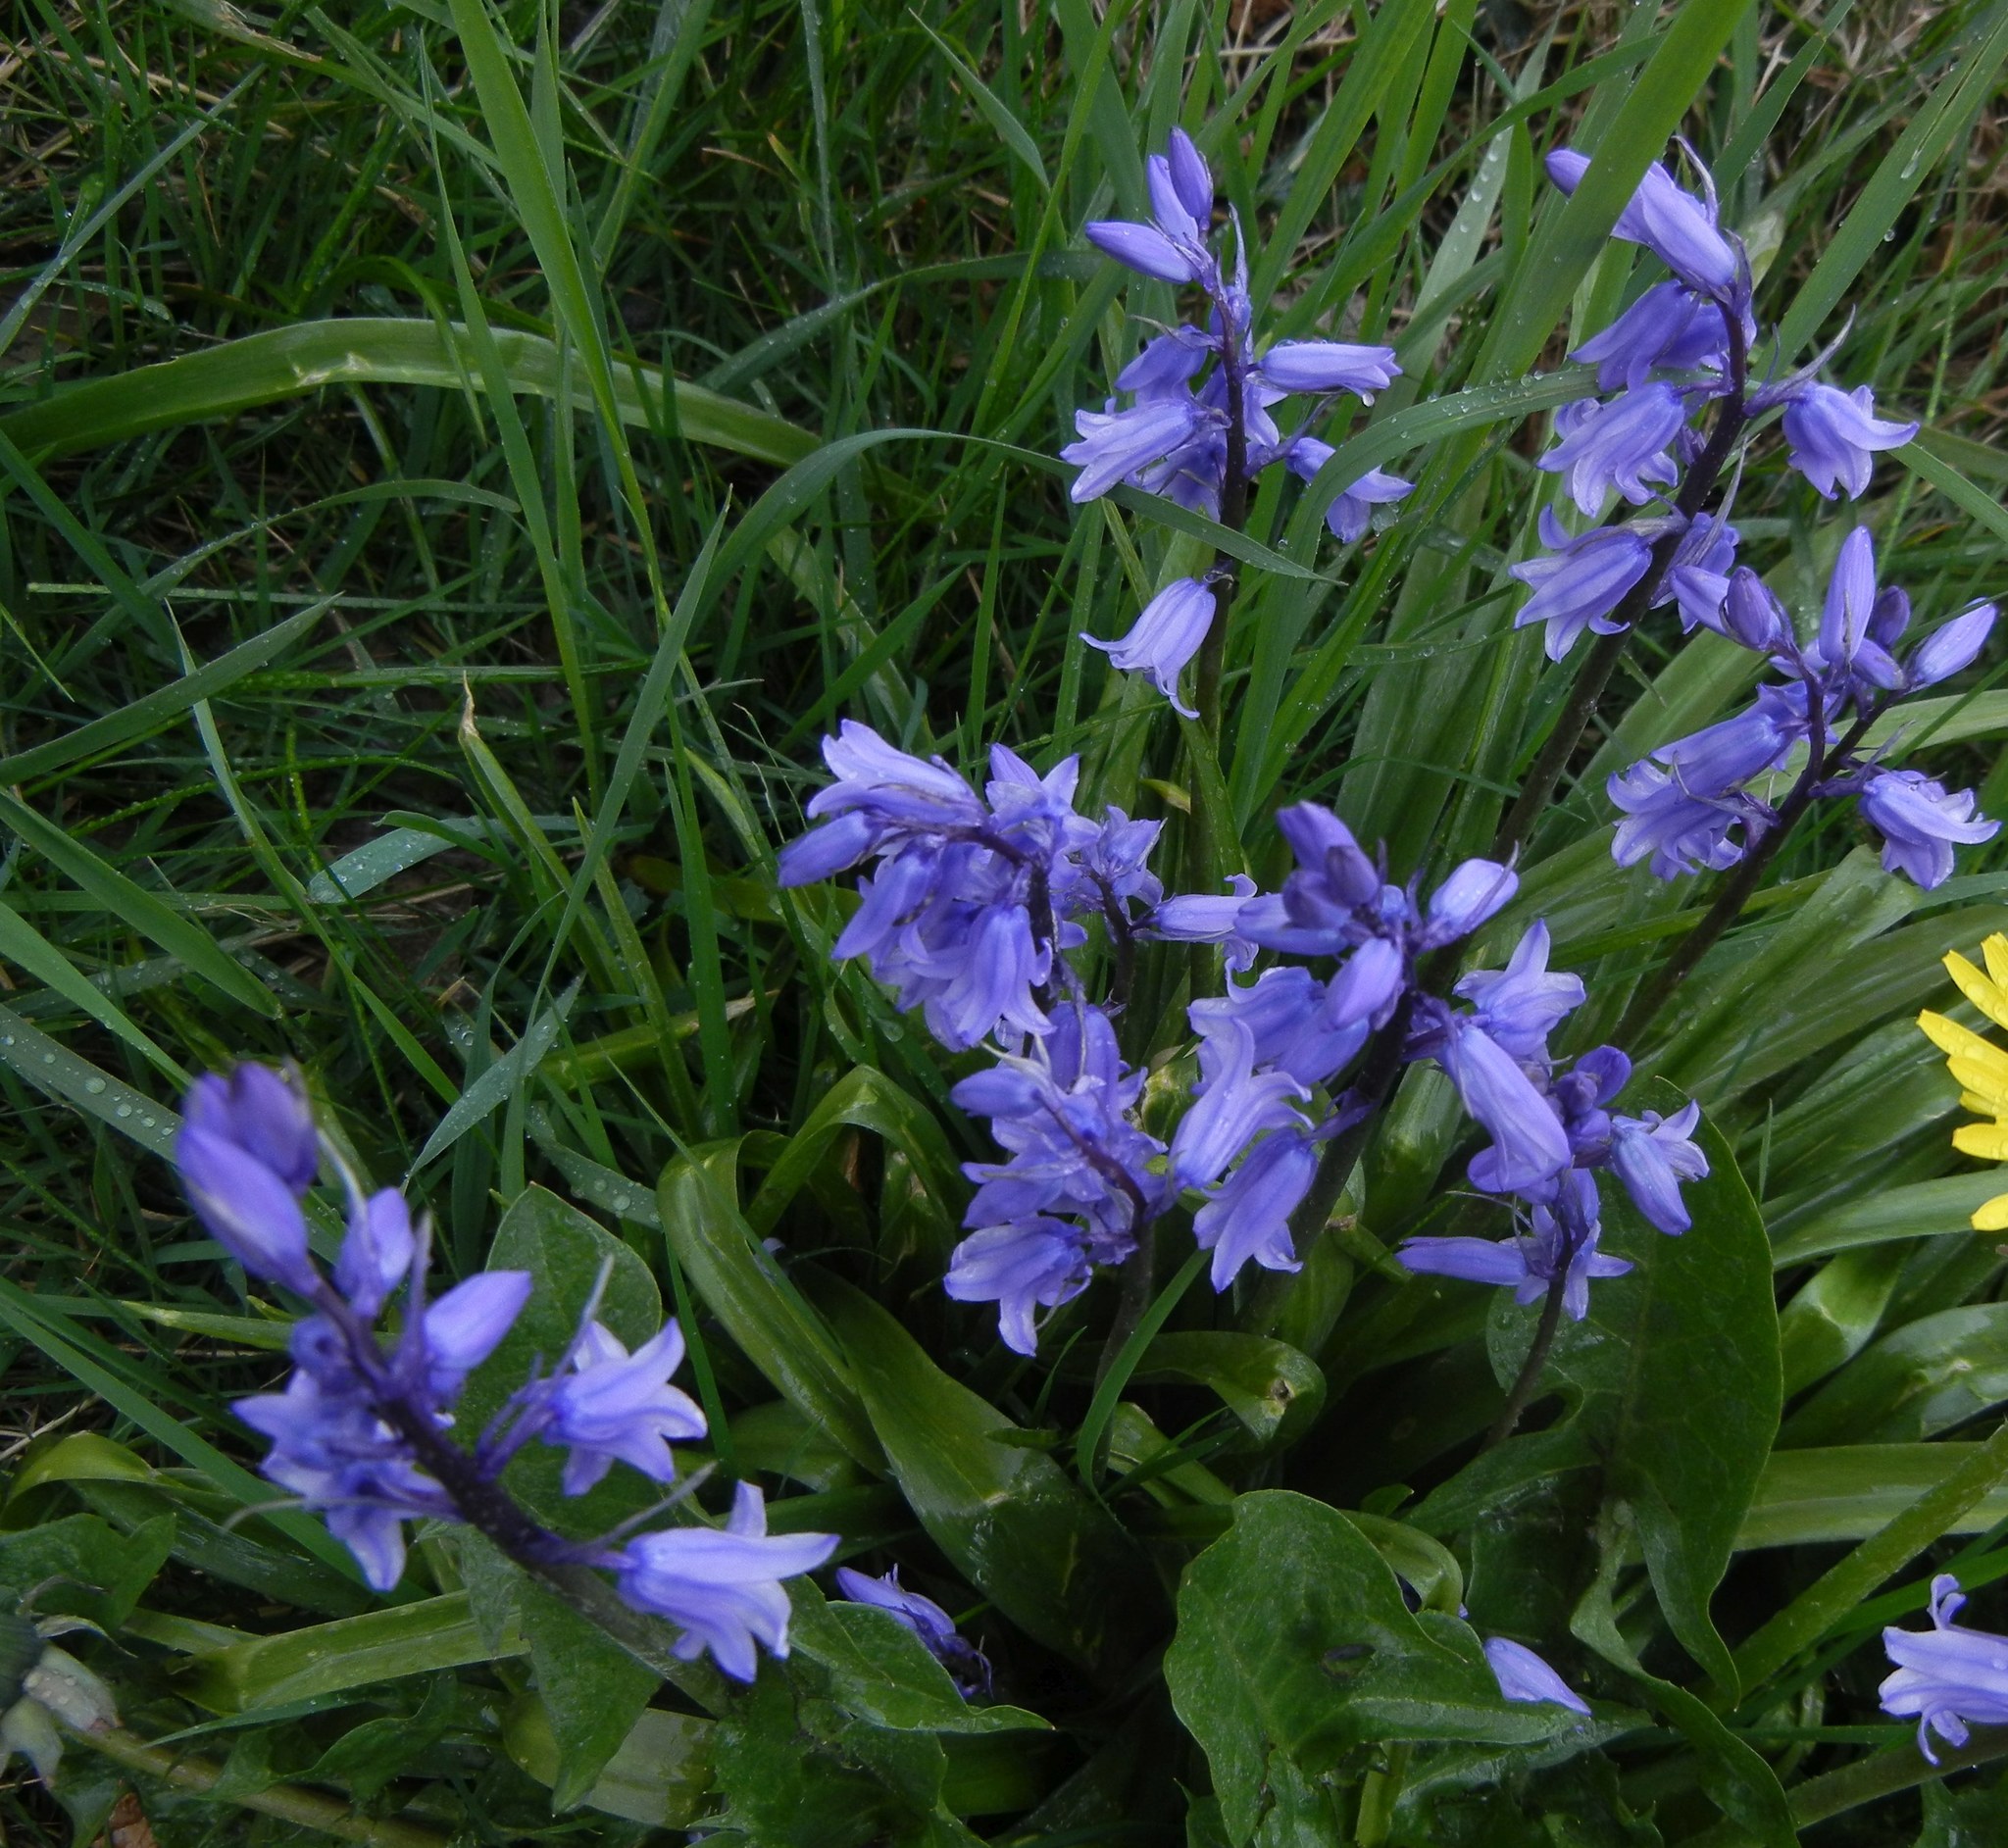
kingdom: Plantae
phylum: Tracheophyta
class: Liliopsida
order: Asparagales
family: Asparagaceae
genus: Hyacinthoides
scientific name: Hyacinthoides massartiana
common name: Hyacinthoides
